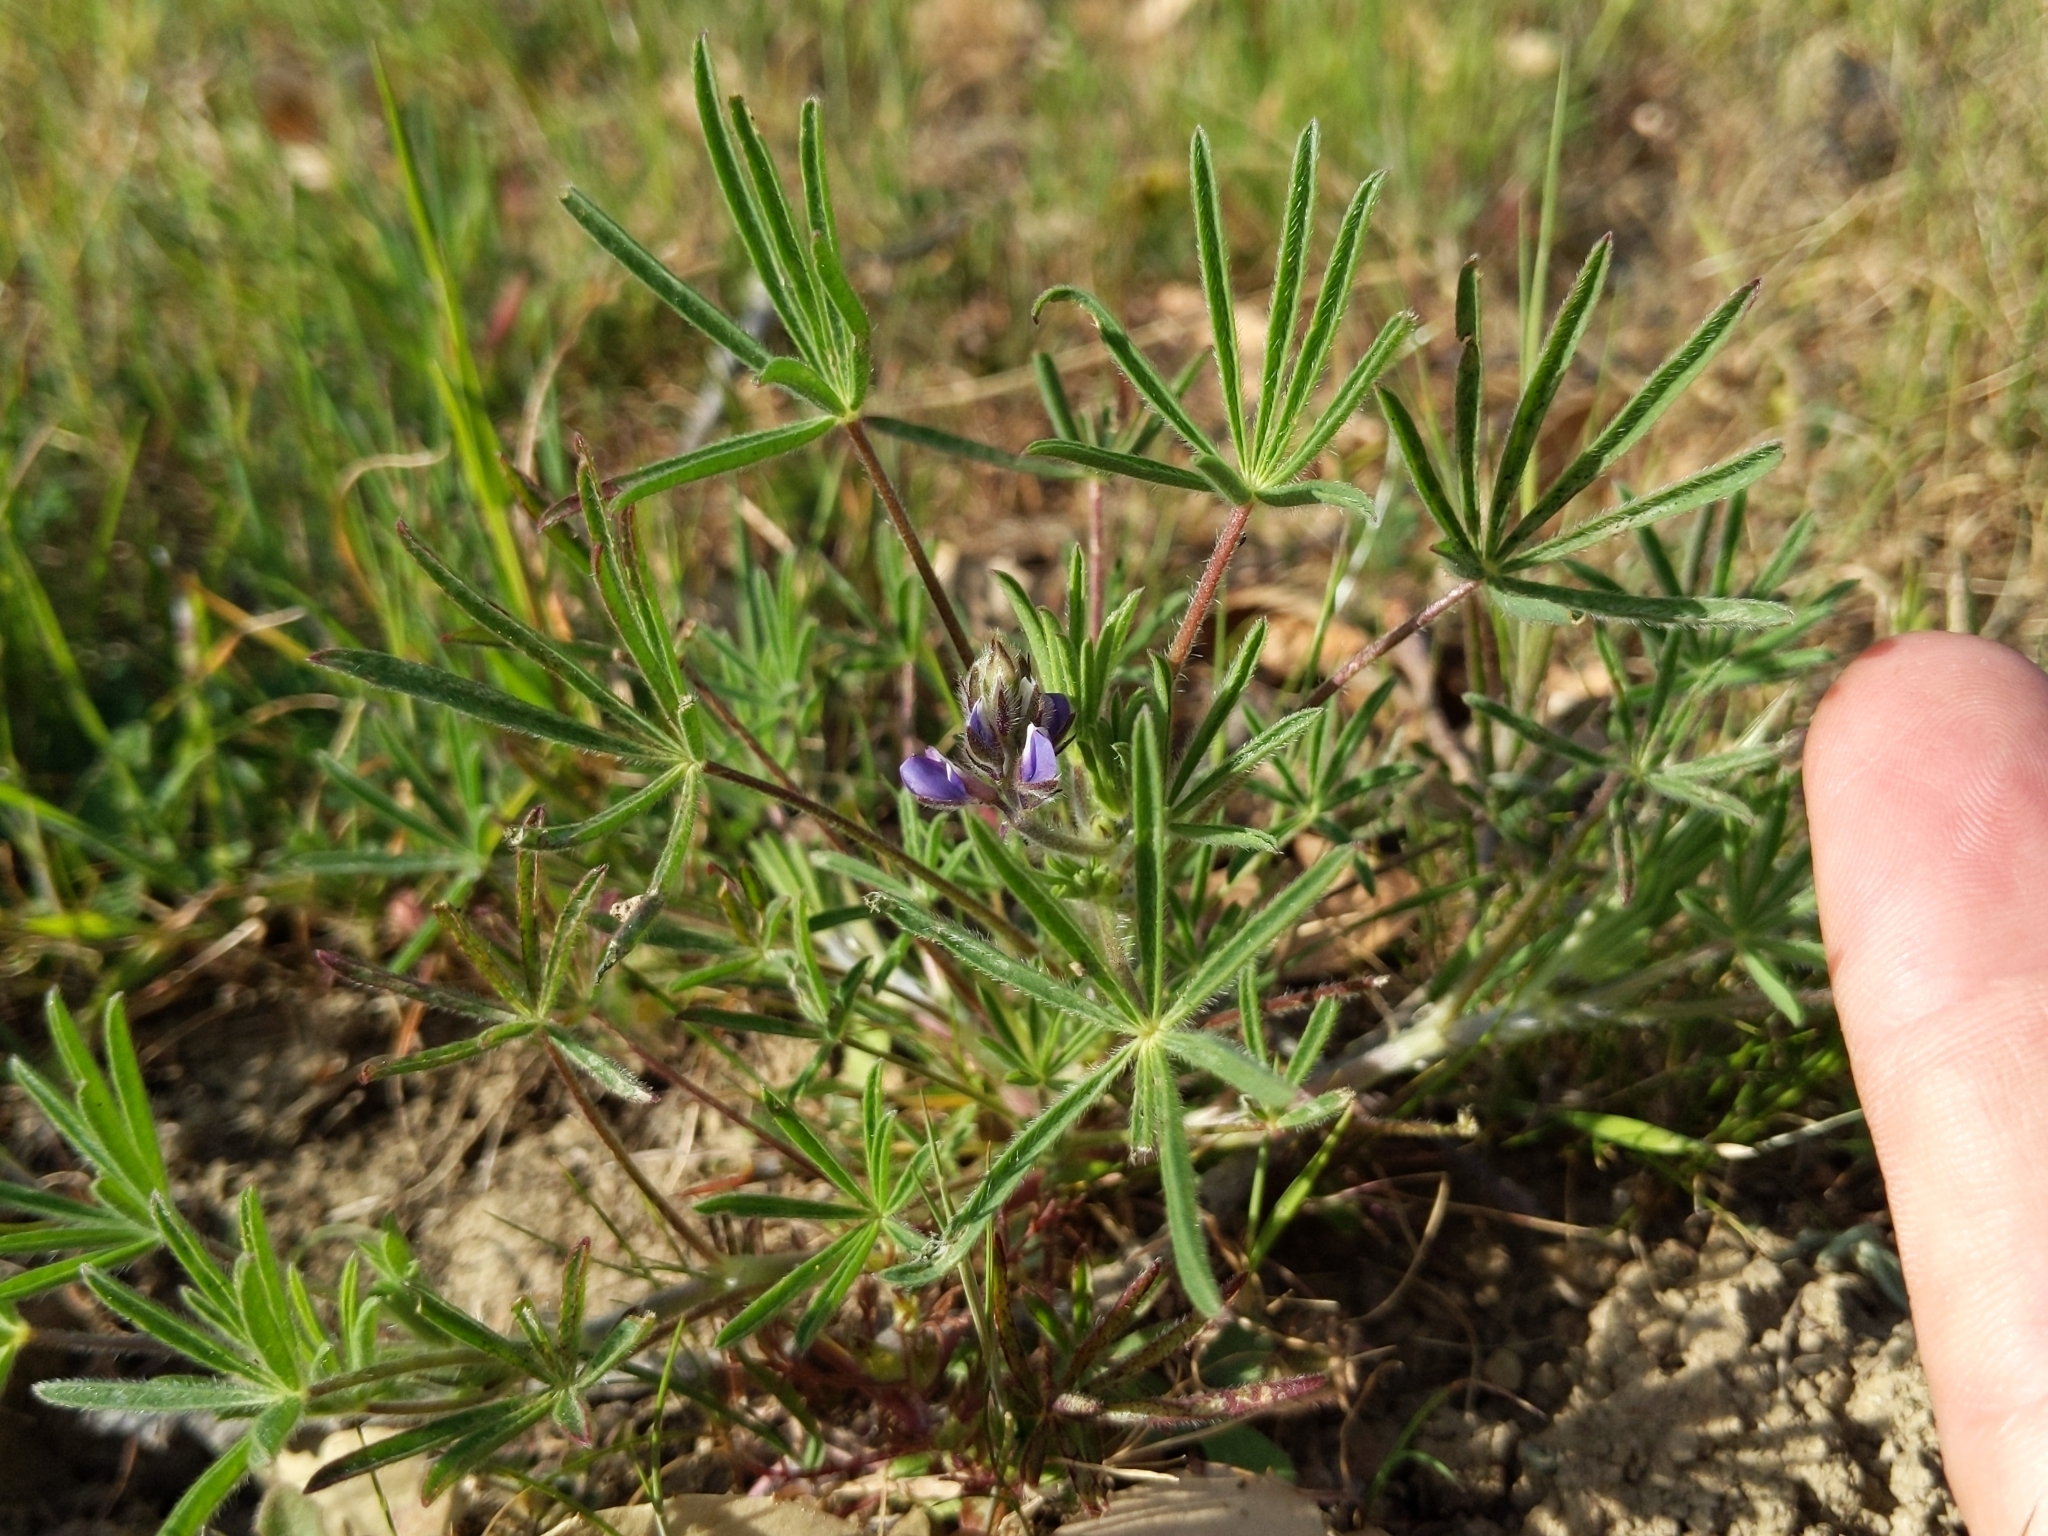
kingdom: Plantae
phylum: Tracheophyta
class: Magnoliopsida
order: Fabales
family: Fabaceae
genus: Lupinus
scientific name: Lupinus bicolor
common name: Miniature lupine
